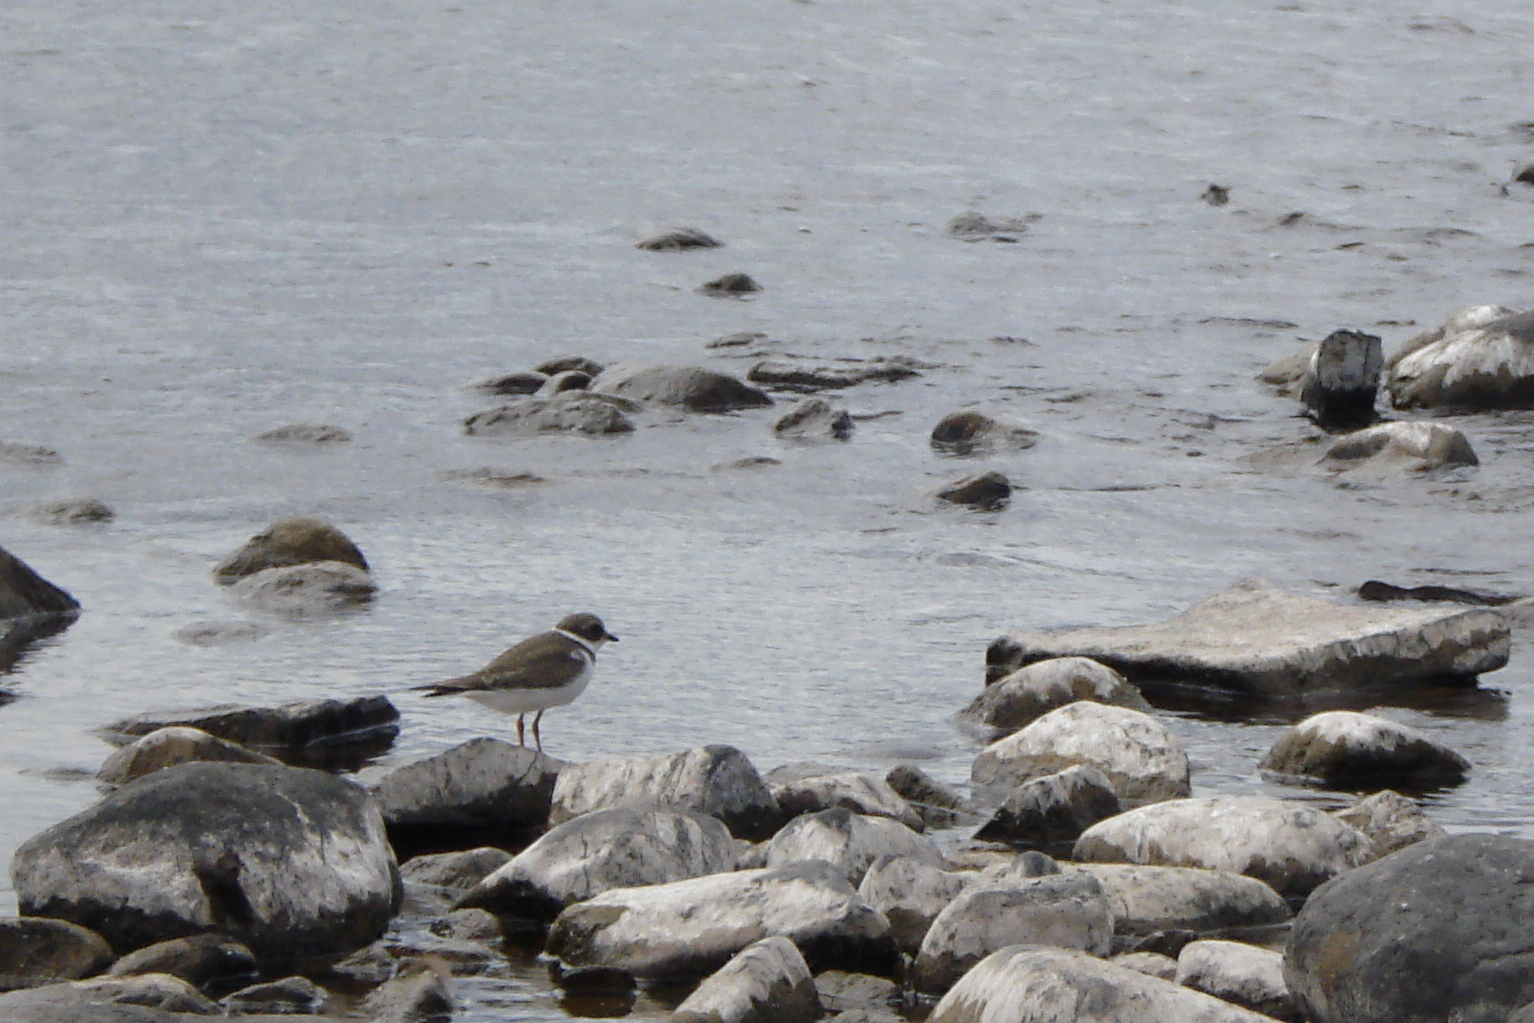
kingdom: Animalia
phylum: Chordata
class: Aves
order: Charadriiformes
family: Charadriidae
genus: Charadrius
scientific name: Charadrius semipalmatus
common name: Semipalmated plover
